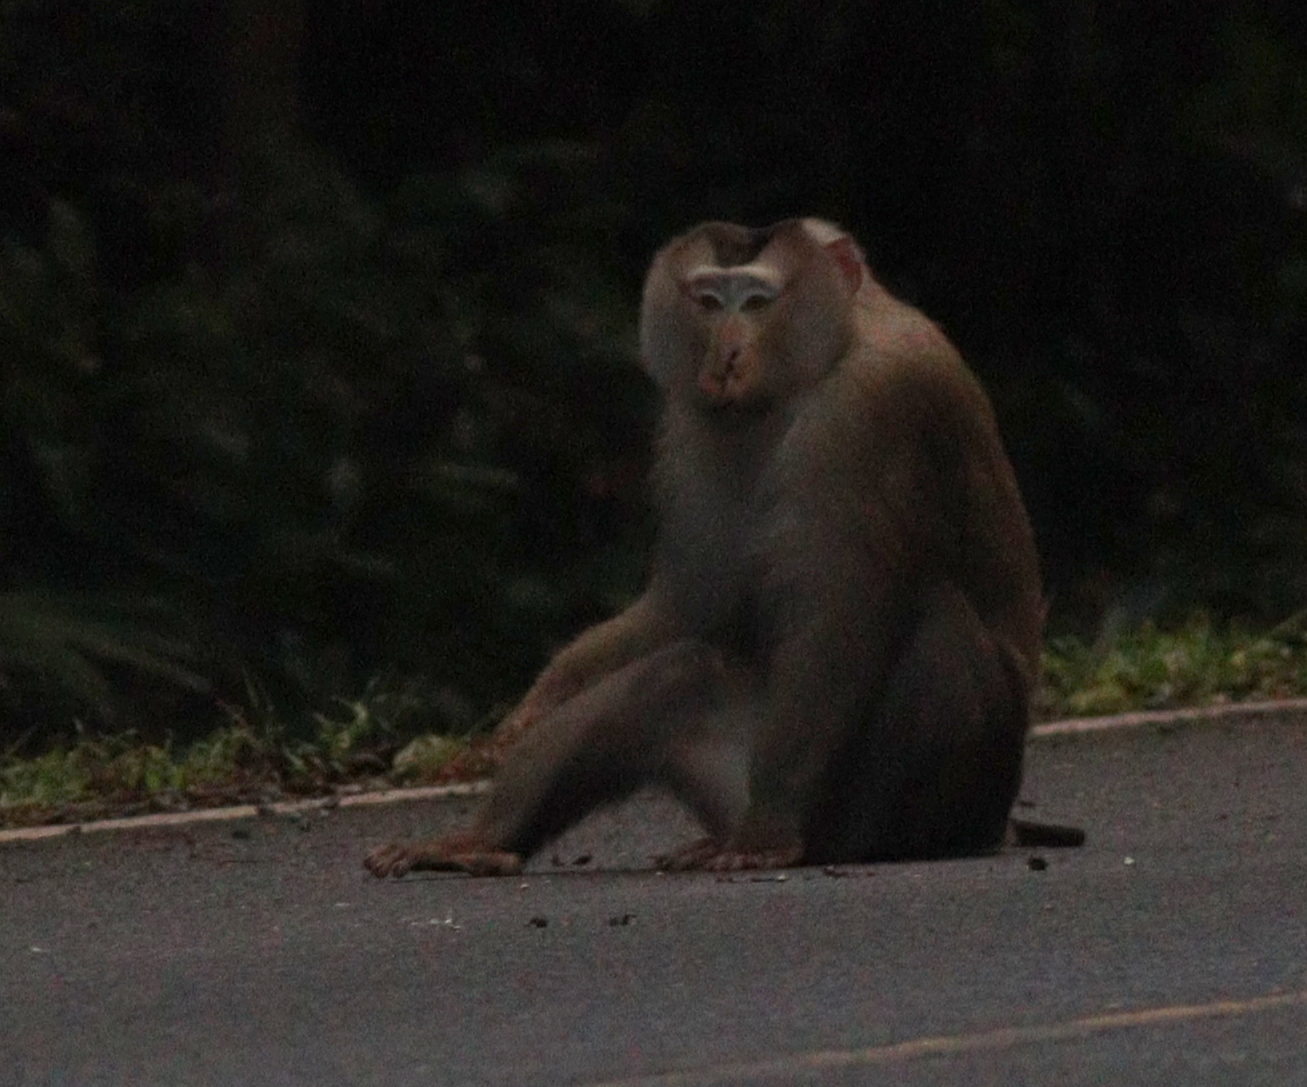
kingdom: Animalia
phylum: Chordata
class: Mammalia
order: Primates
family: Cercopithecidae
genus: Macaca
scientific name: Macaca leonina
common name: Northern pig-tailed macaque
